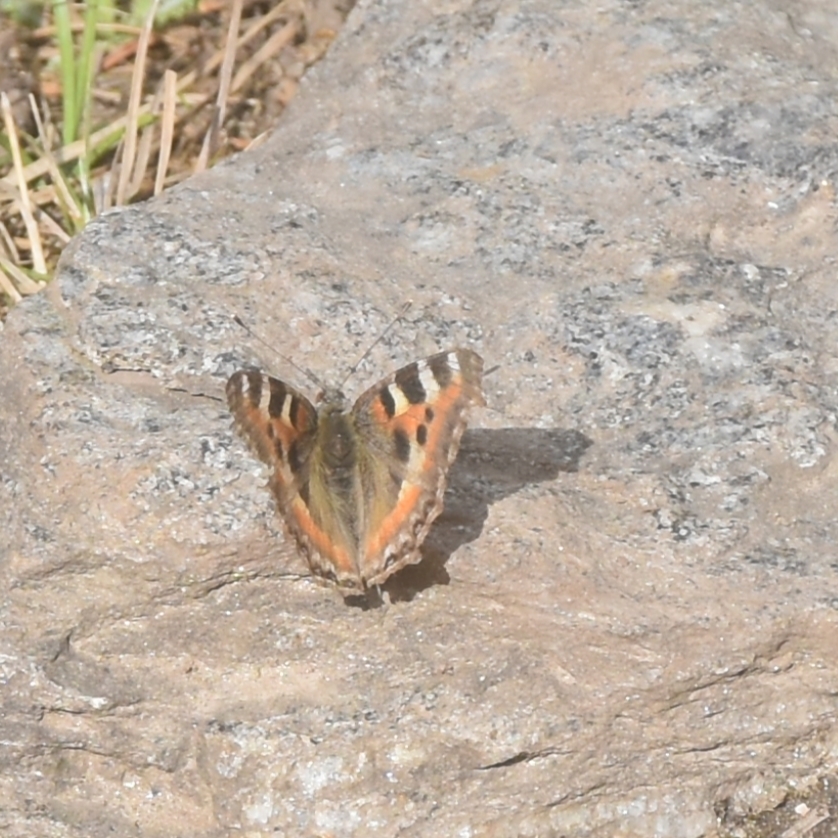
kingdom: Animalia
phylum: Arthropoda
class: Insecta
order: Lepidoptera
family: Nymphalidae
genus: Aglais
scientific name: Aglais caschmirensis
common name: Indian tortoiseshell
